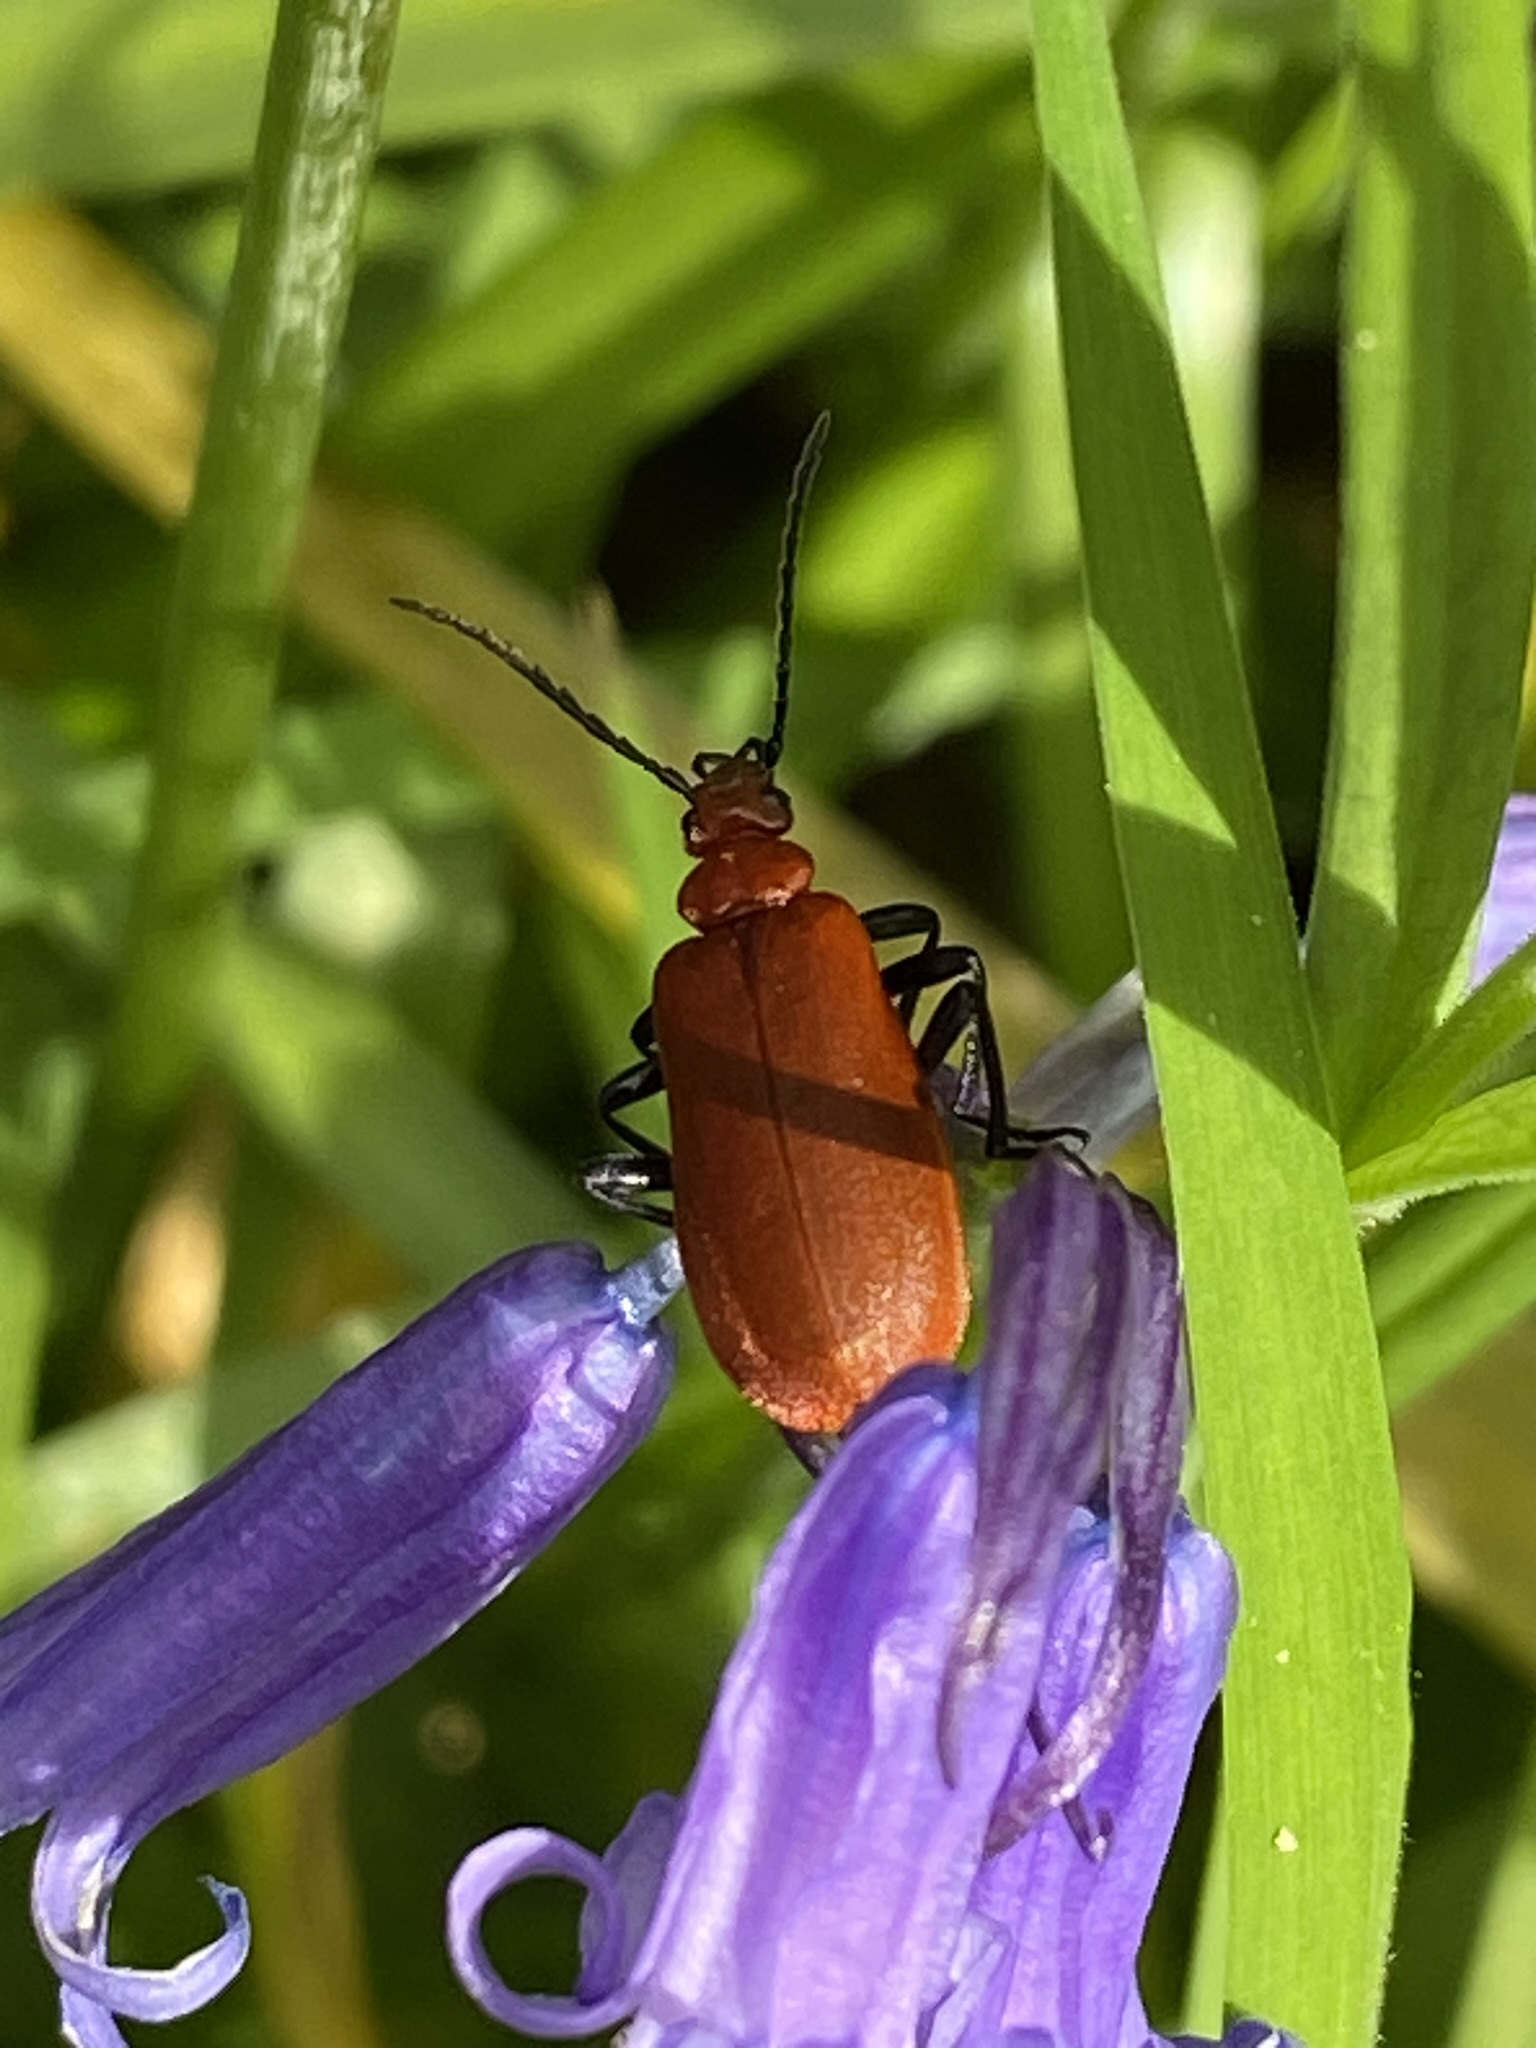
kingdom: Animalia
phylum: Arthropoda
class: Insecta
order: Coleoptera
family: Pyrochroidae
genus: Pyrochroa
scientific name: Pyrochroa serraticornis
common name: Red-headed cardinal beetle
